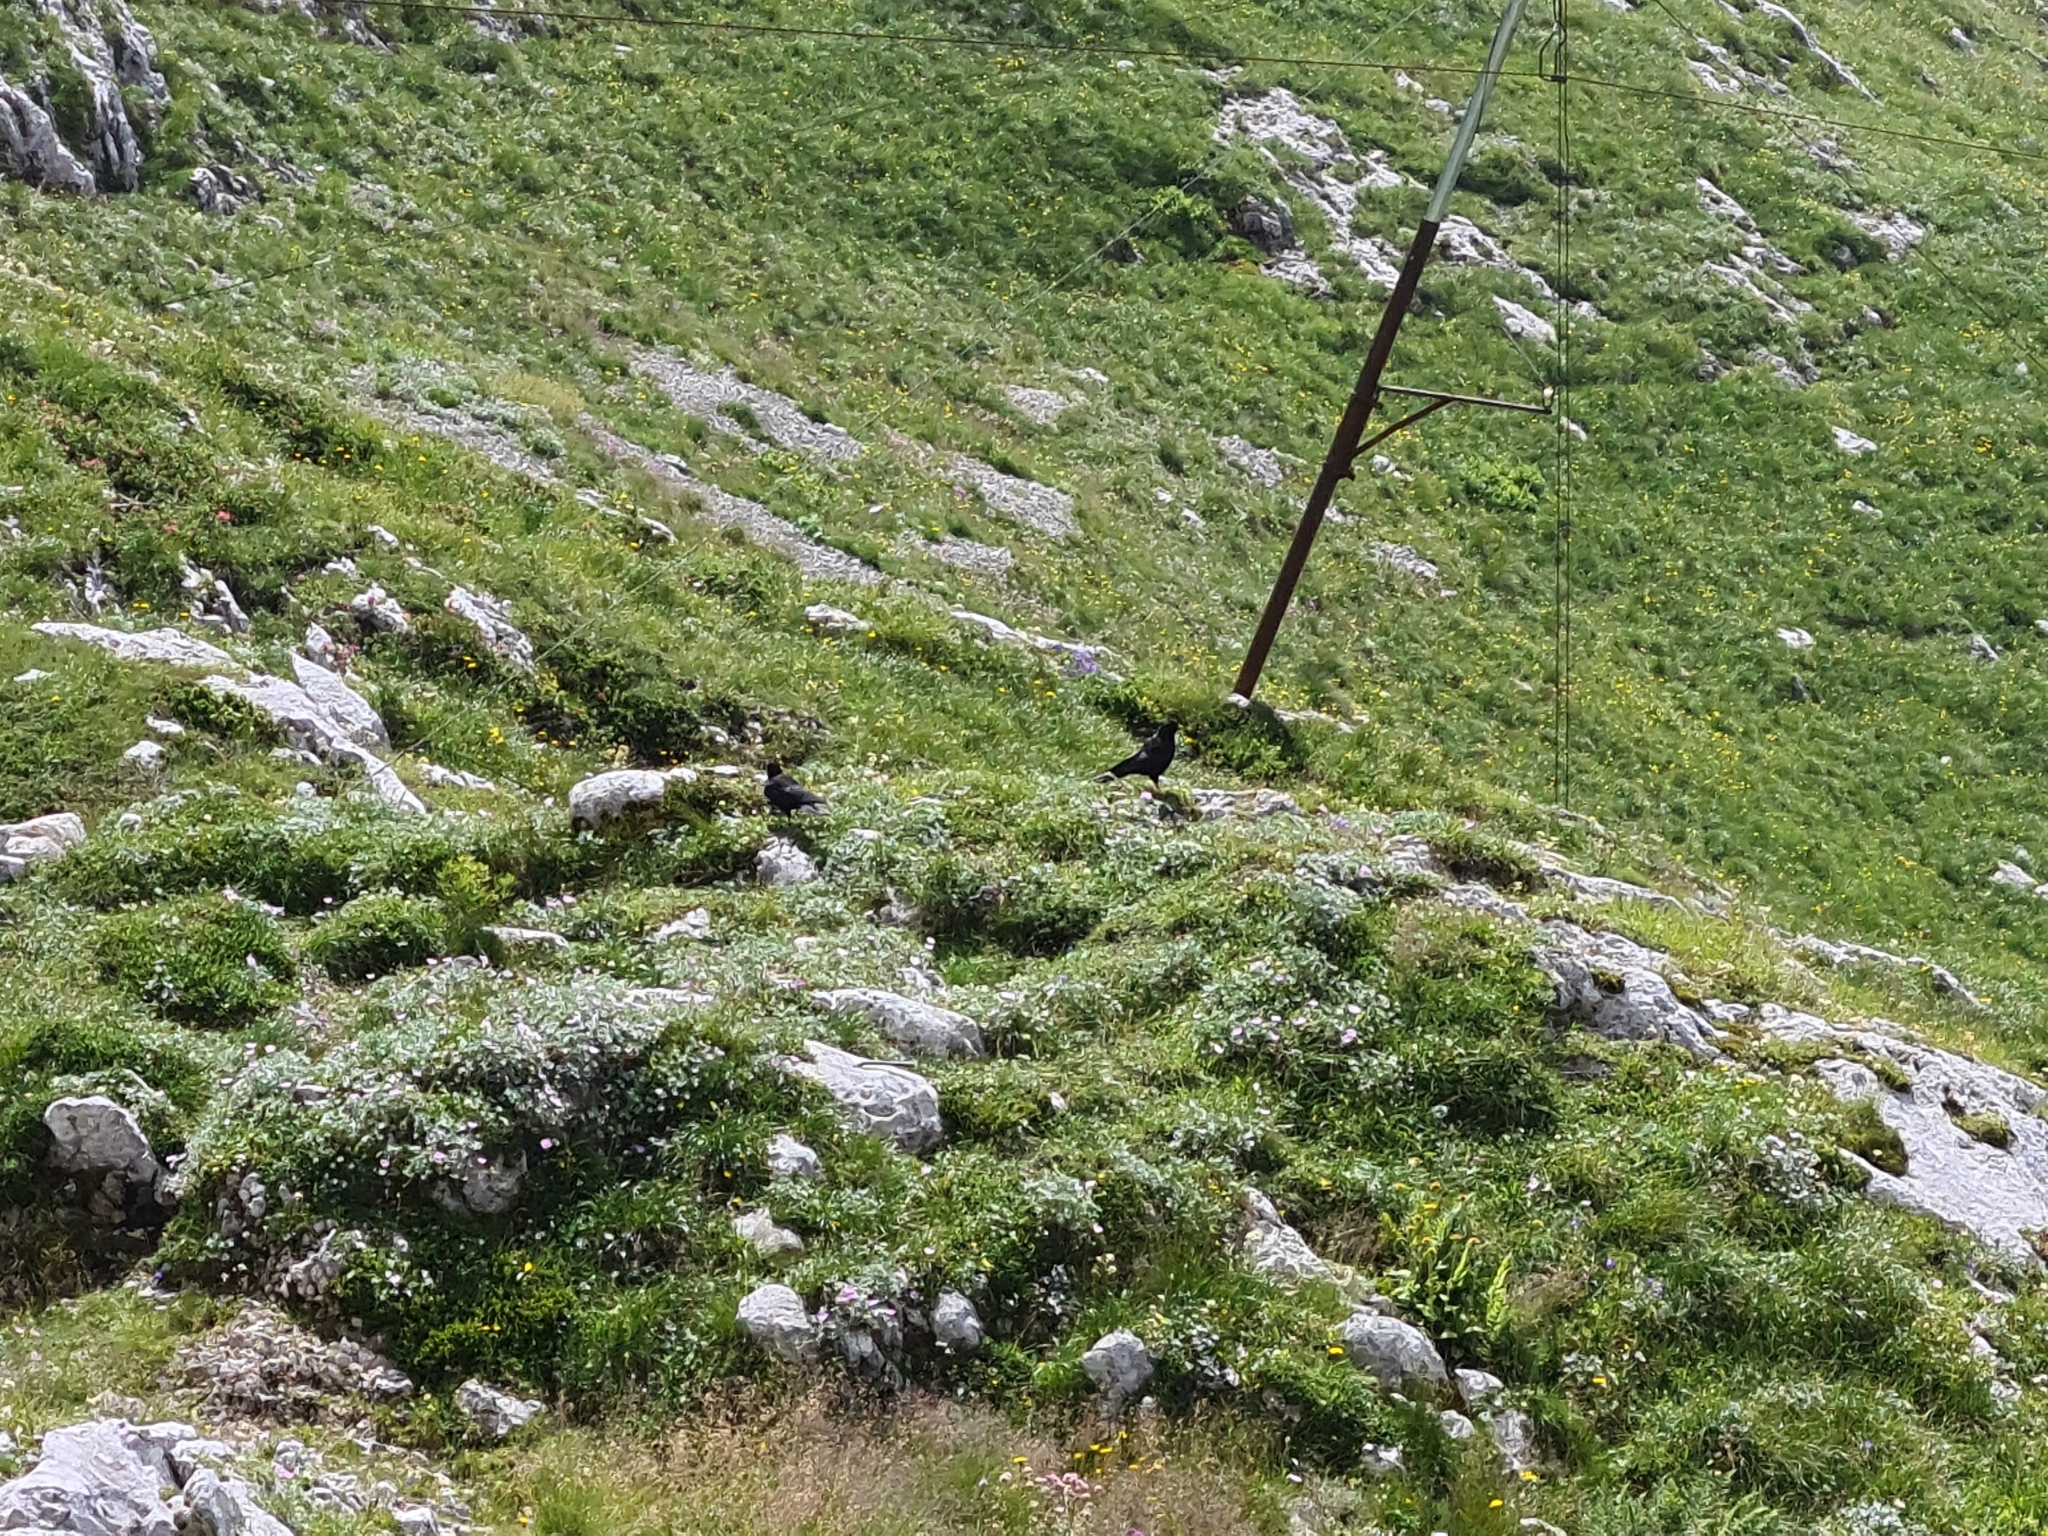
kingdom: Animalia
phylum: Chordata
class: Aves
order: Passeriformes
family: Corvidae
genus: Pyrrhocorax
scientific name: Pyrrhocorax graculus
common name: Alpine chough
